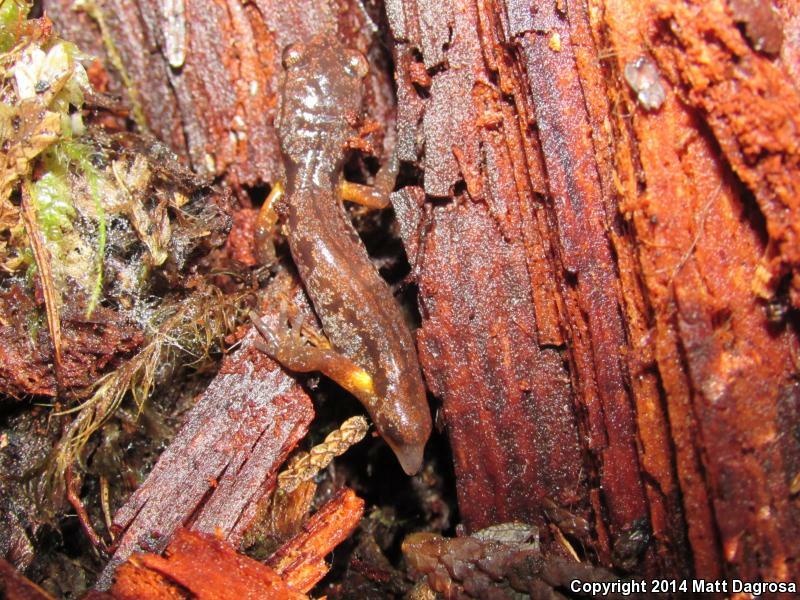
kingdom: Animalia
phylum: Chordata
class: Amphibia
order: Caudata
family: Plethodontidae
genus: Ensatina
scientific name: Ensatina eschscholtzii
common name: Ensatina
